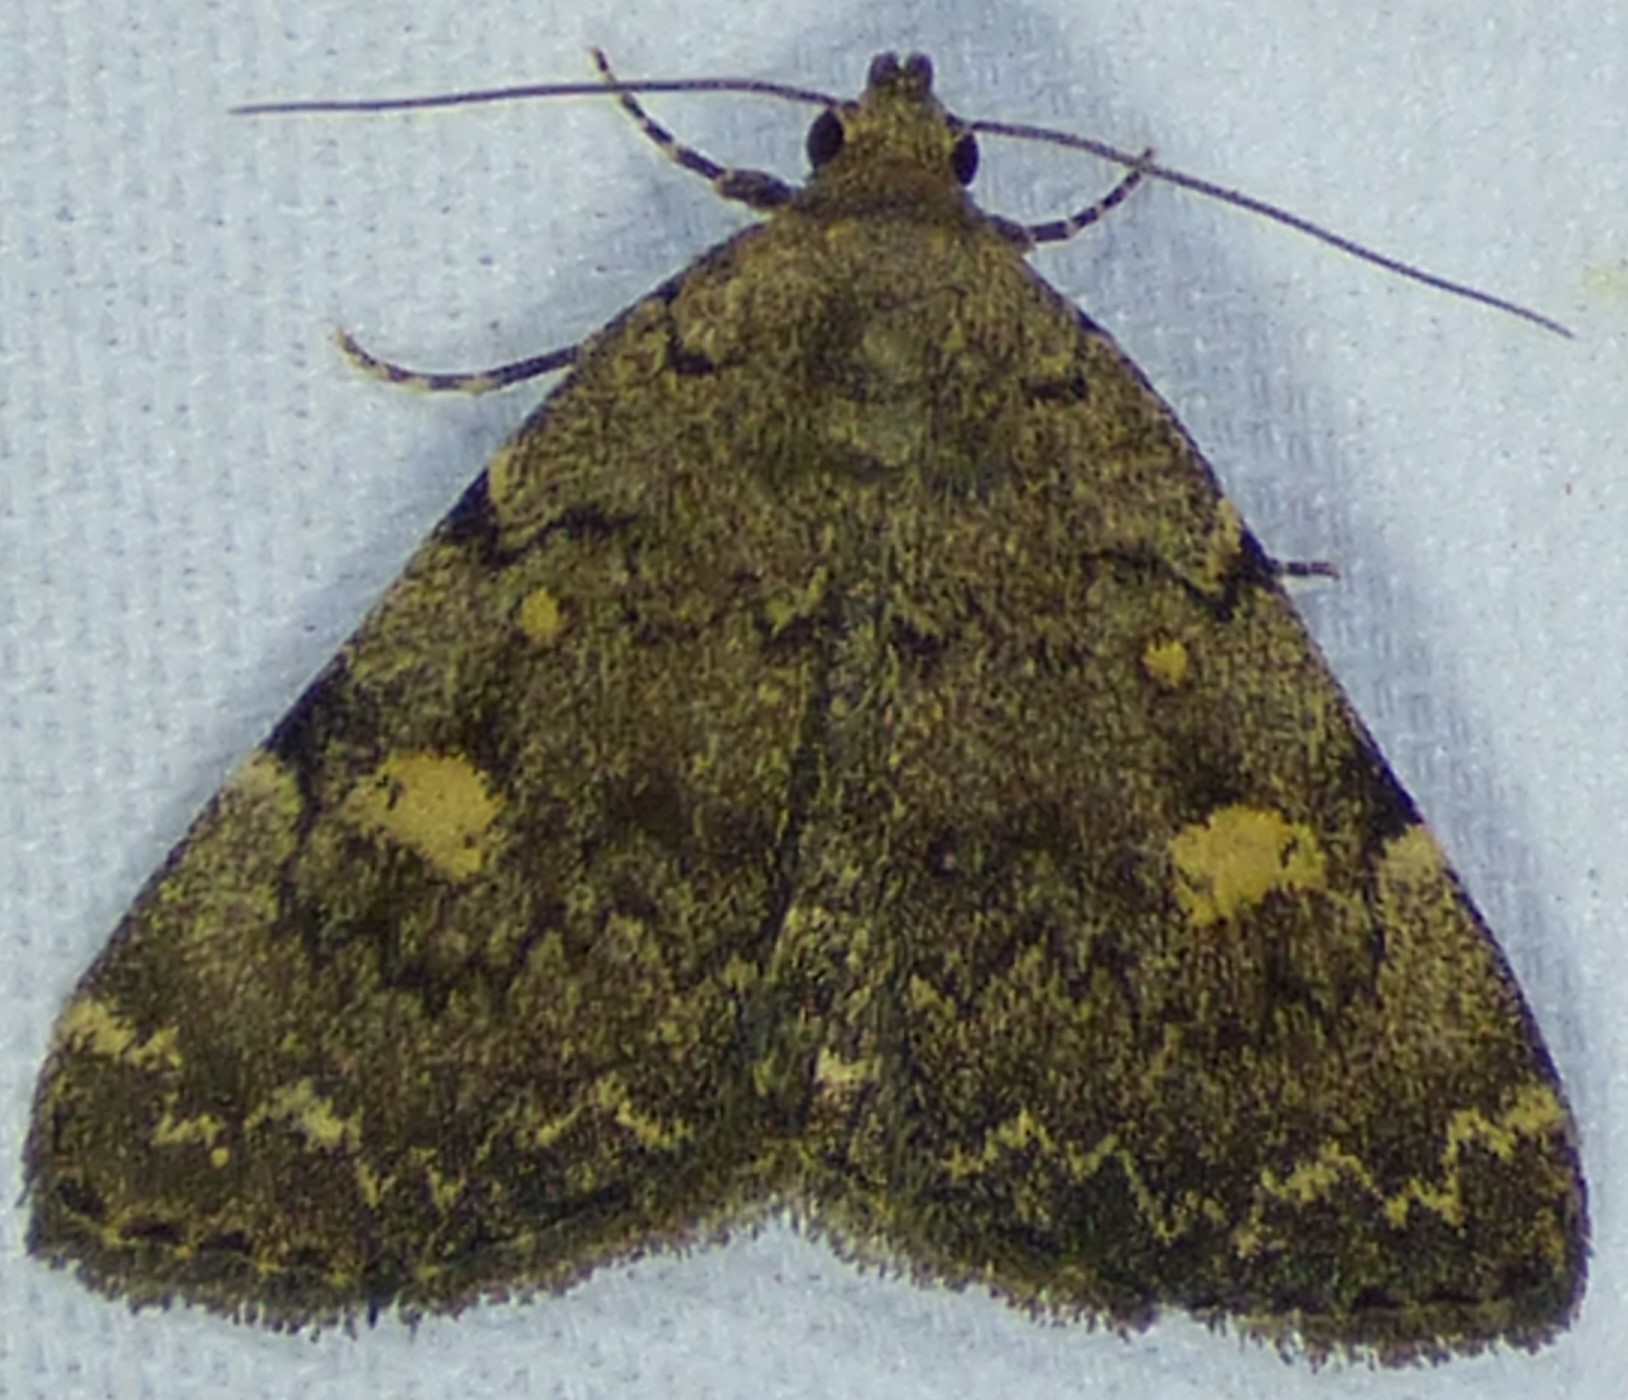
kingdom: Animalia
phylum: Arthropoda
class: Insecta
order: Lepidoptera
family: Erebidae
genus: Idia
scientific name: Idia aemula
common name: Common idia moth
